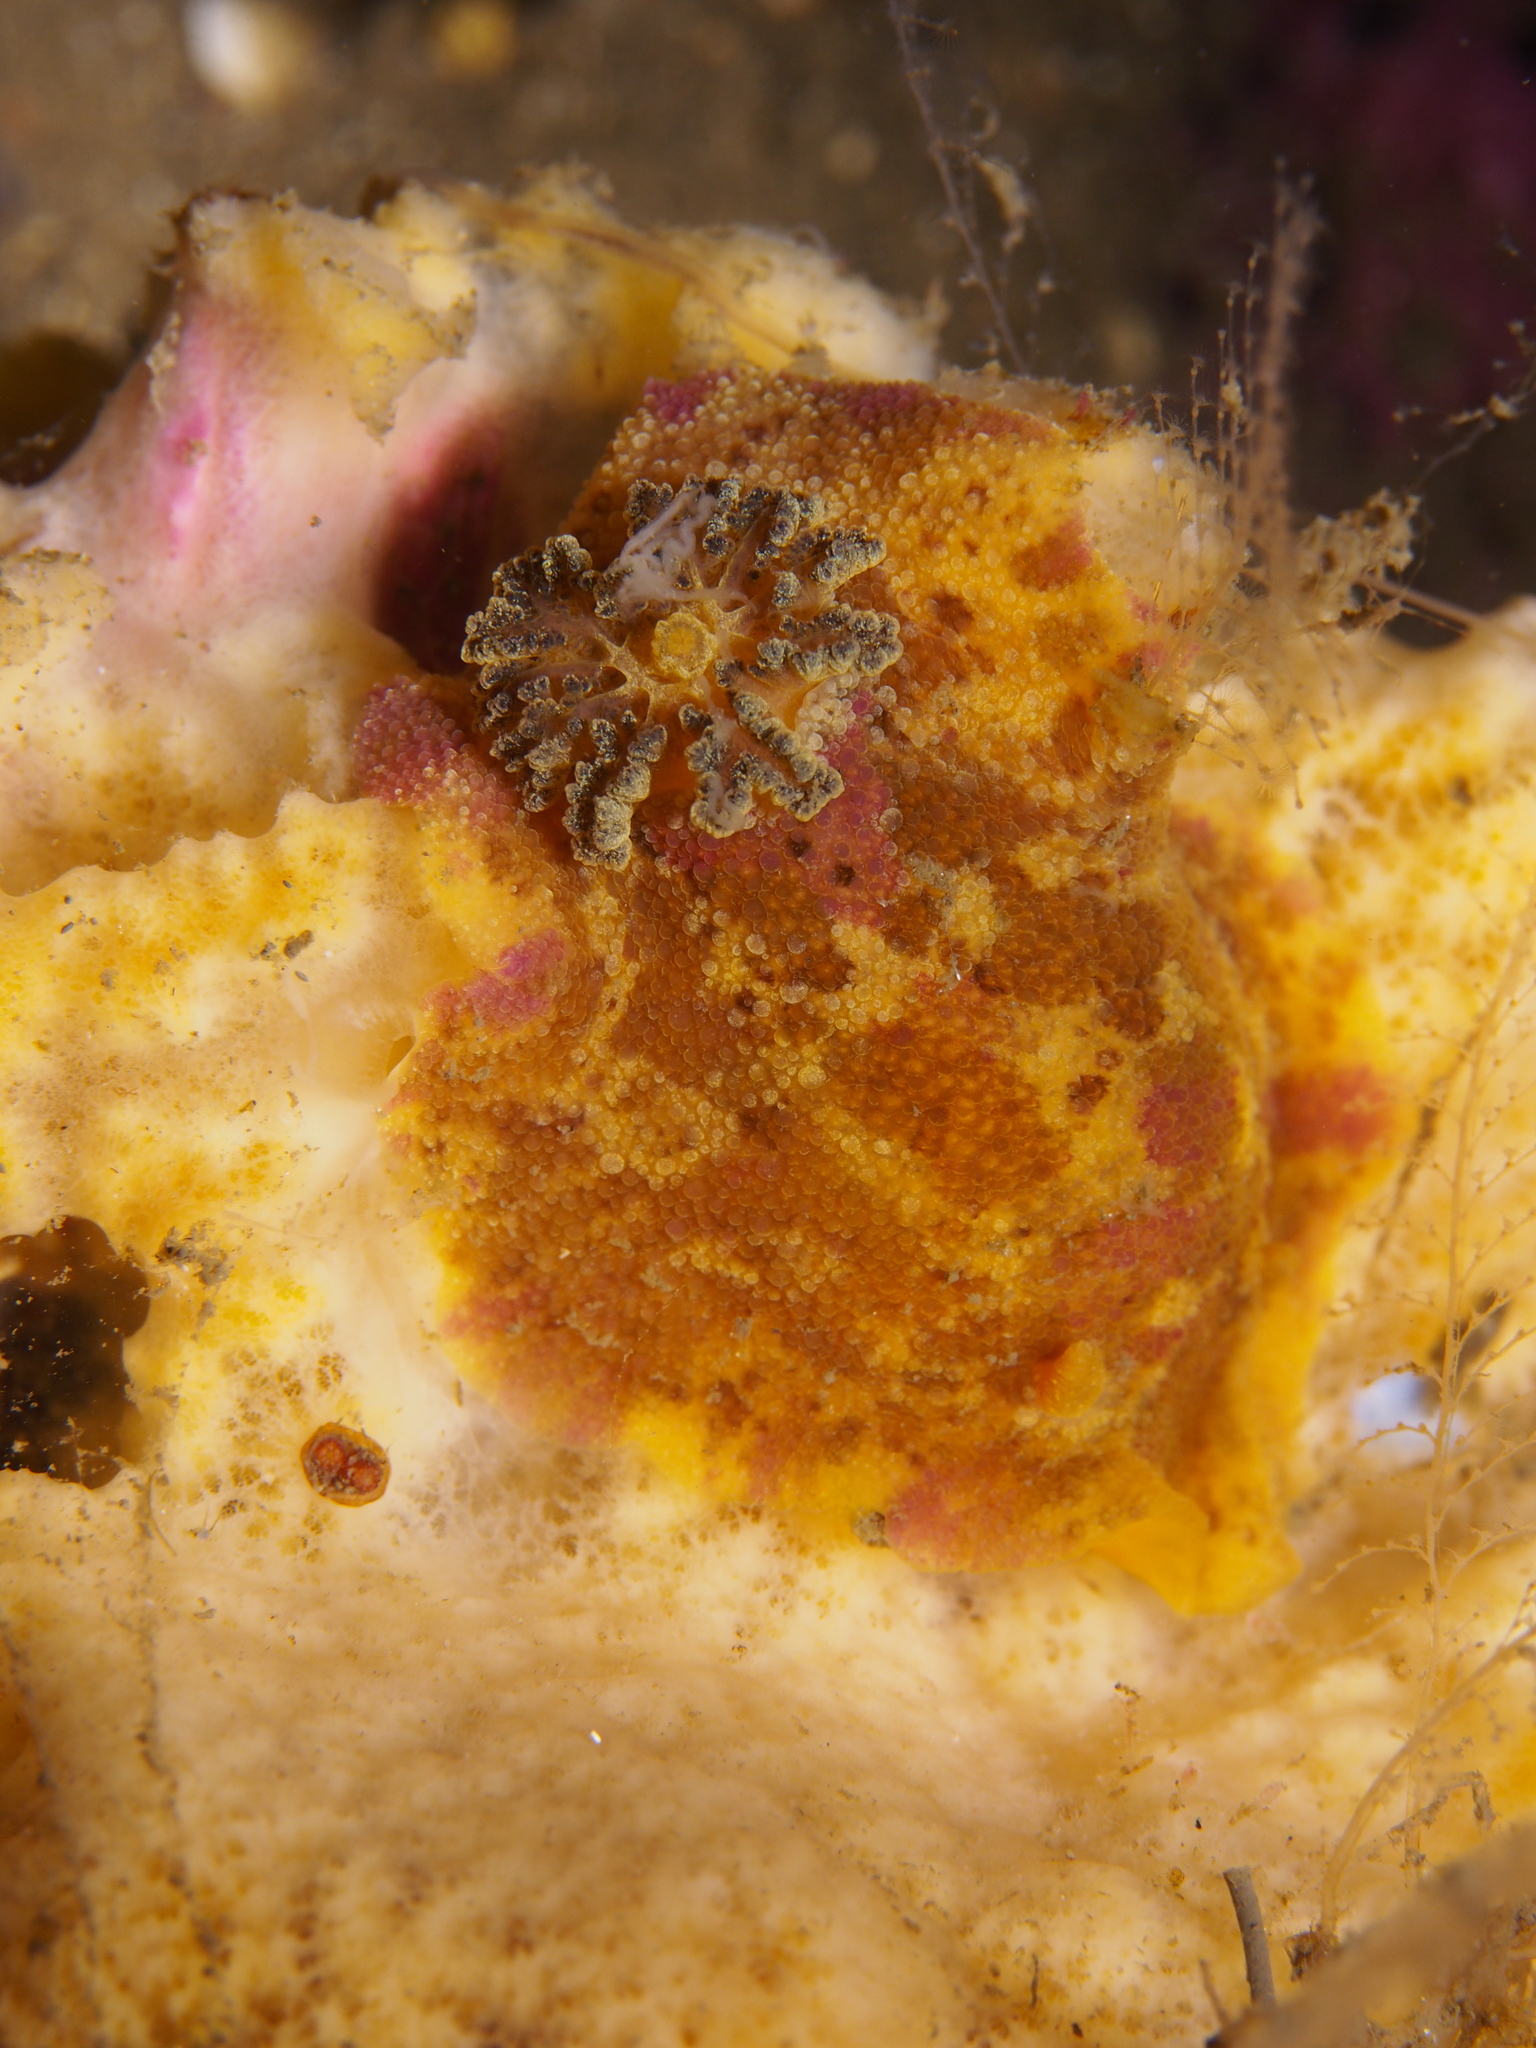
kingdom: Animalia
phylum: Mollusca
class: Gastropoda
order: Nudibranchia
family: Dorididae
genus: Doris
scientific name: Doris pseudoargus
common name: Sea lemon
